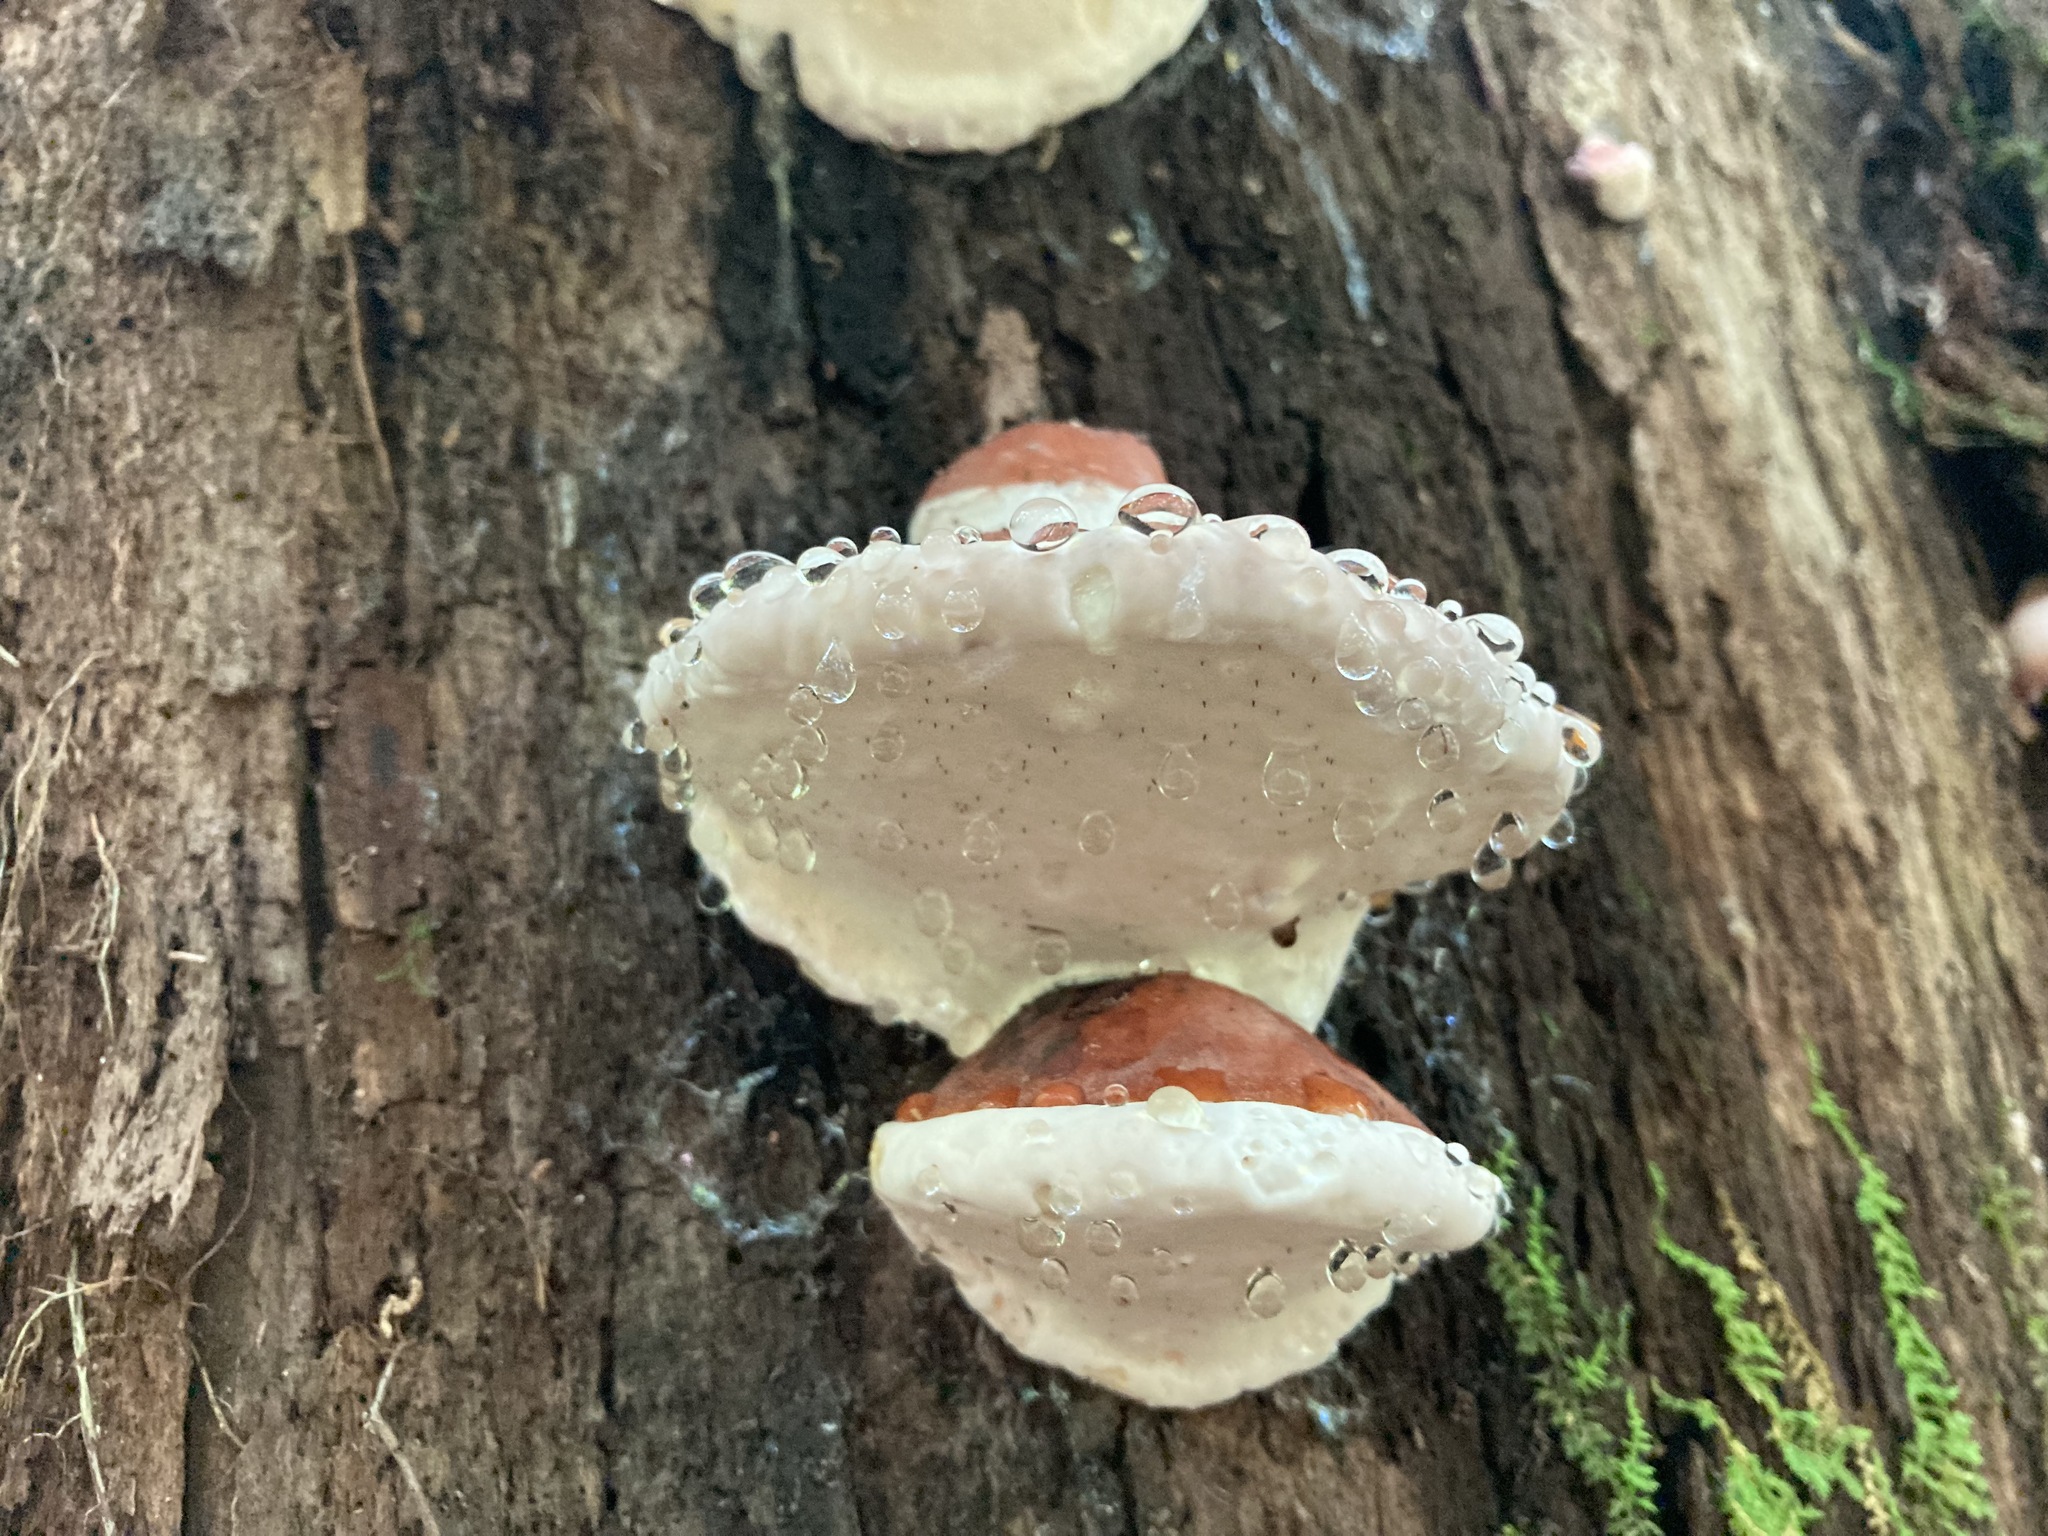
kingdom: Fungi
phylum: Basidiomycota
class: Agaricomycetes
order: Polyporales
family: Fomitopsidaceae
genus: Fomitopsis
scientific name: Fomitopsis mounceae
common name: Northern red belt
